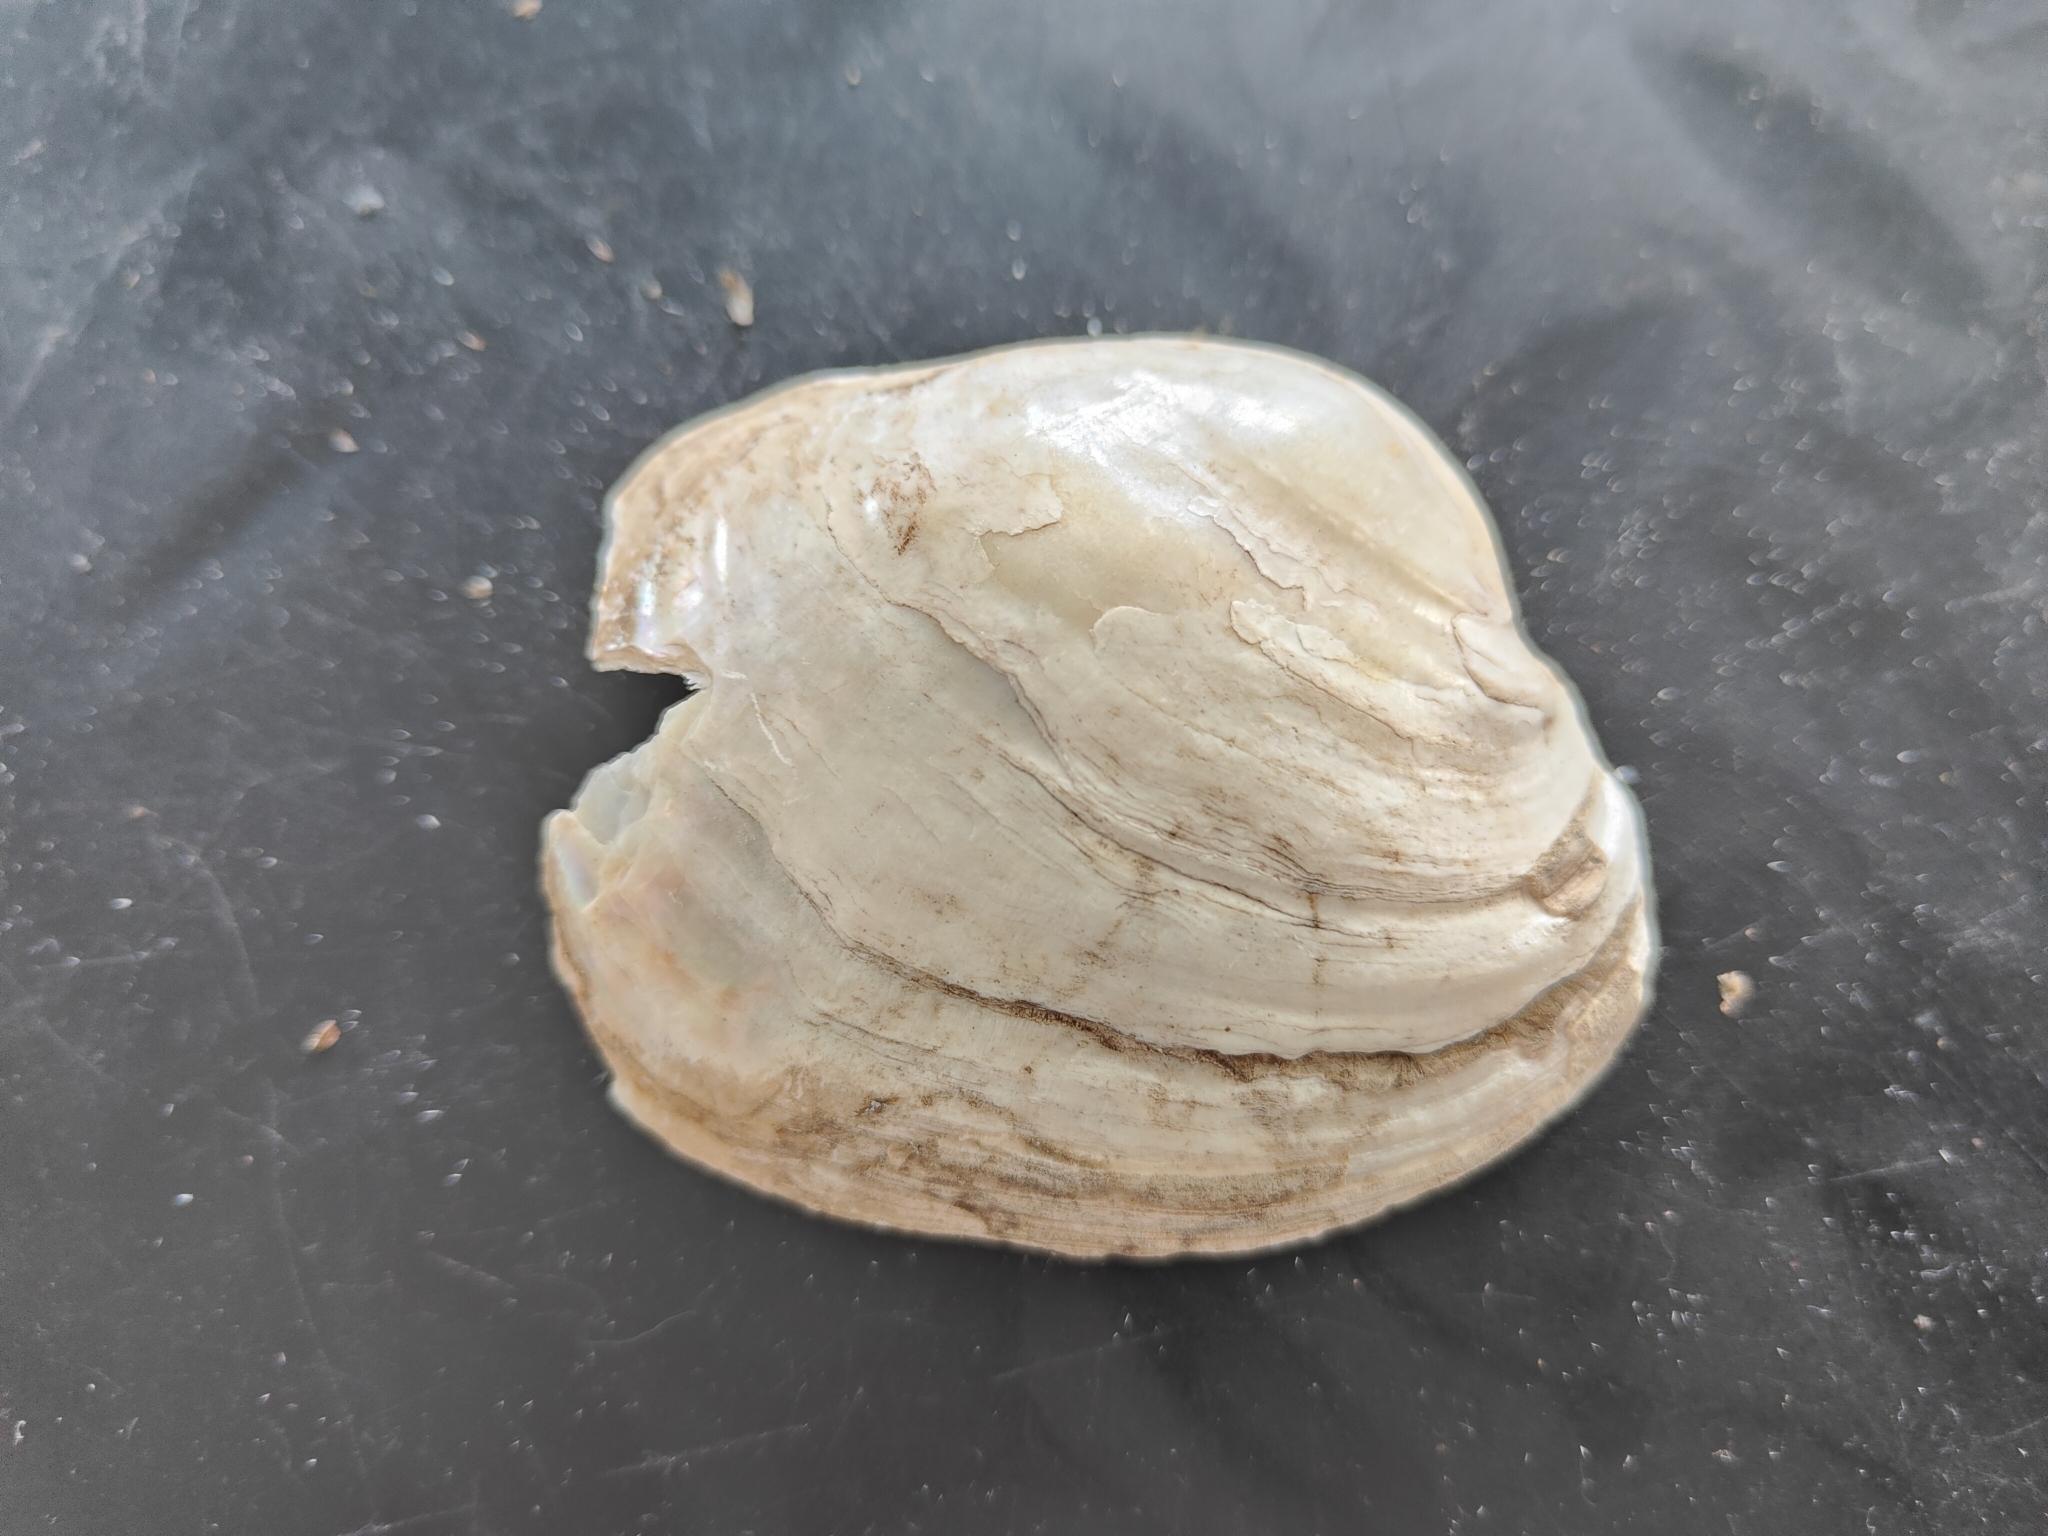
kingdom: Animalia
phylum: Mollusca
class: Bivalvia
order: Unionida
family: Unionidae
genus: Lampsilis
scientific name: Lampsilis cardium
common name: Plain pocketbook
